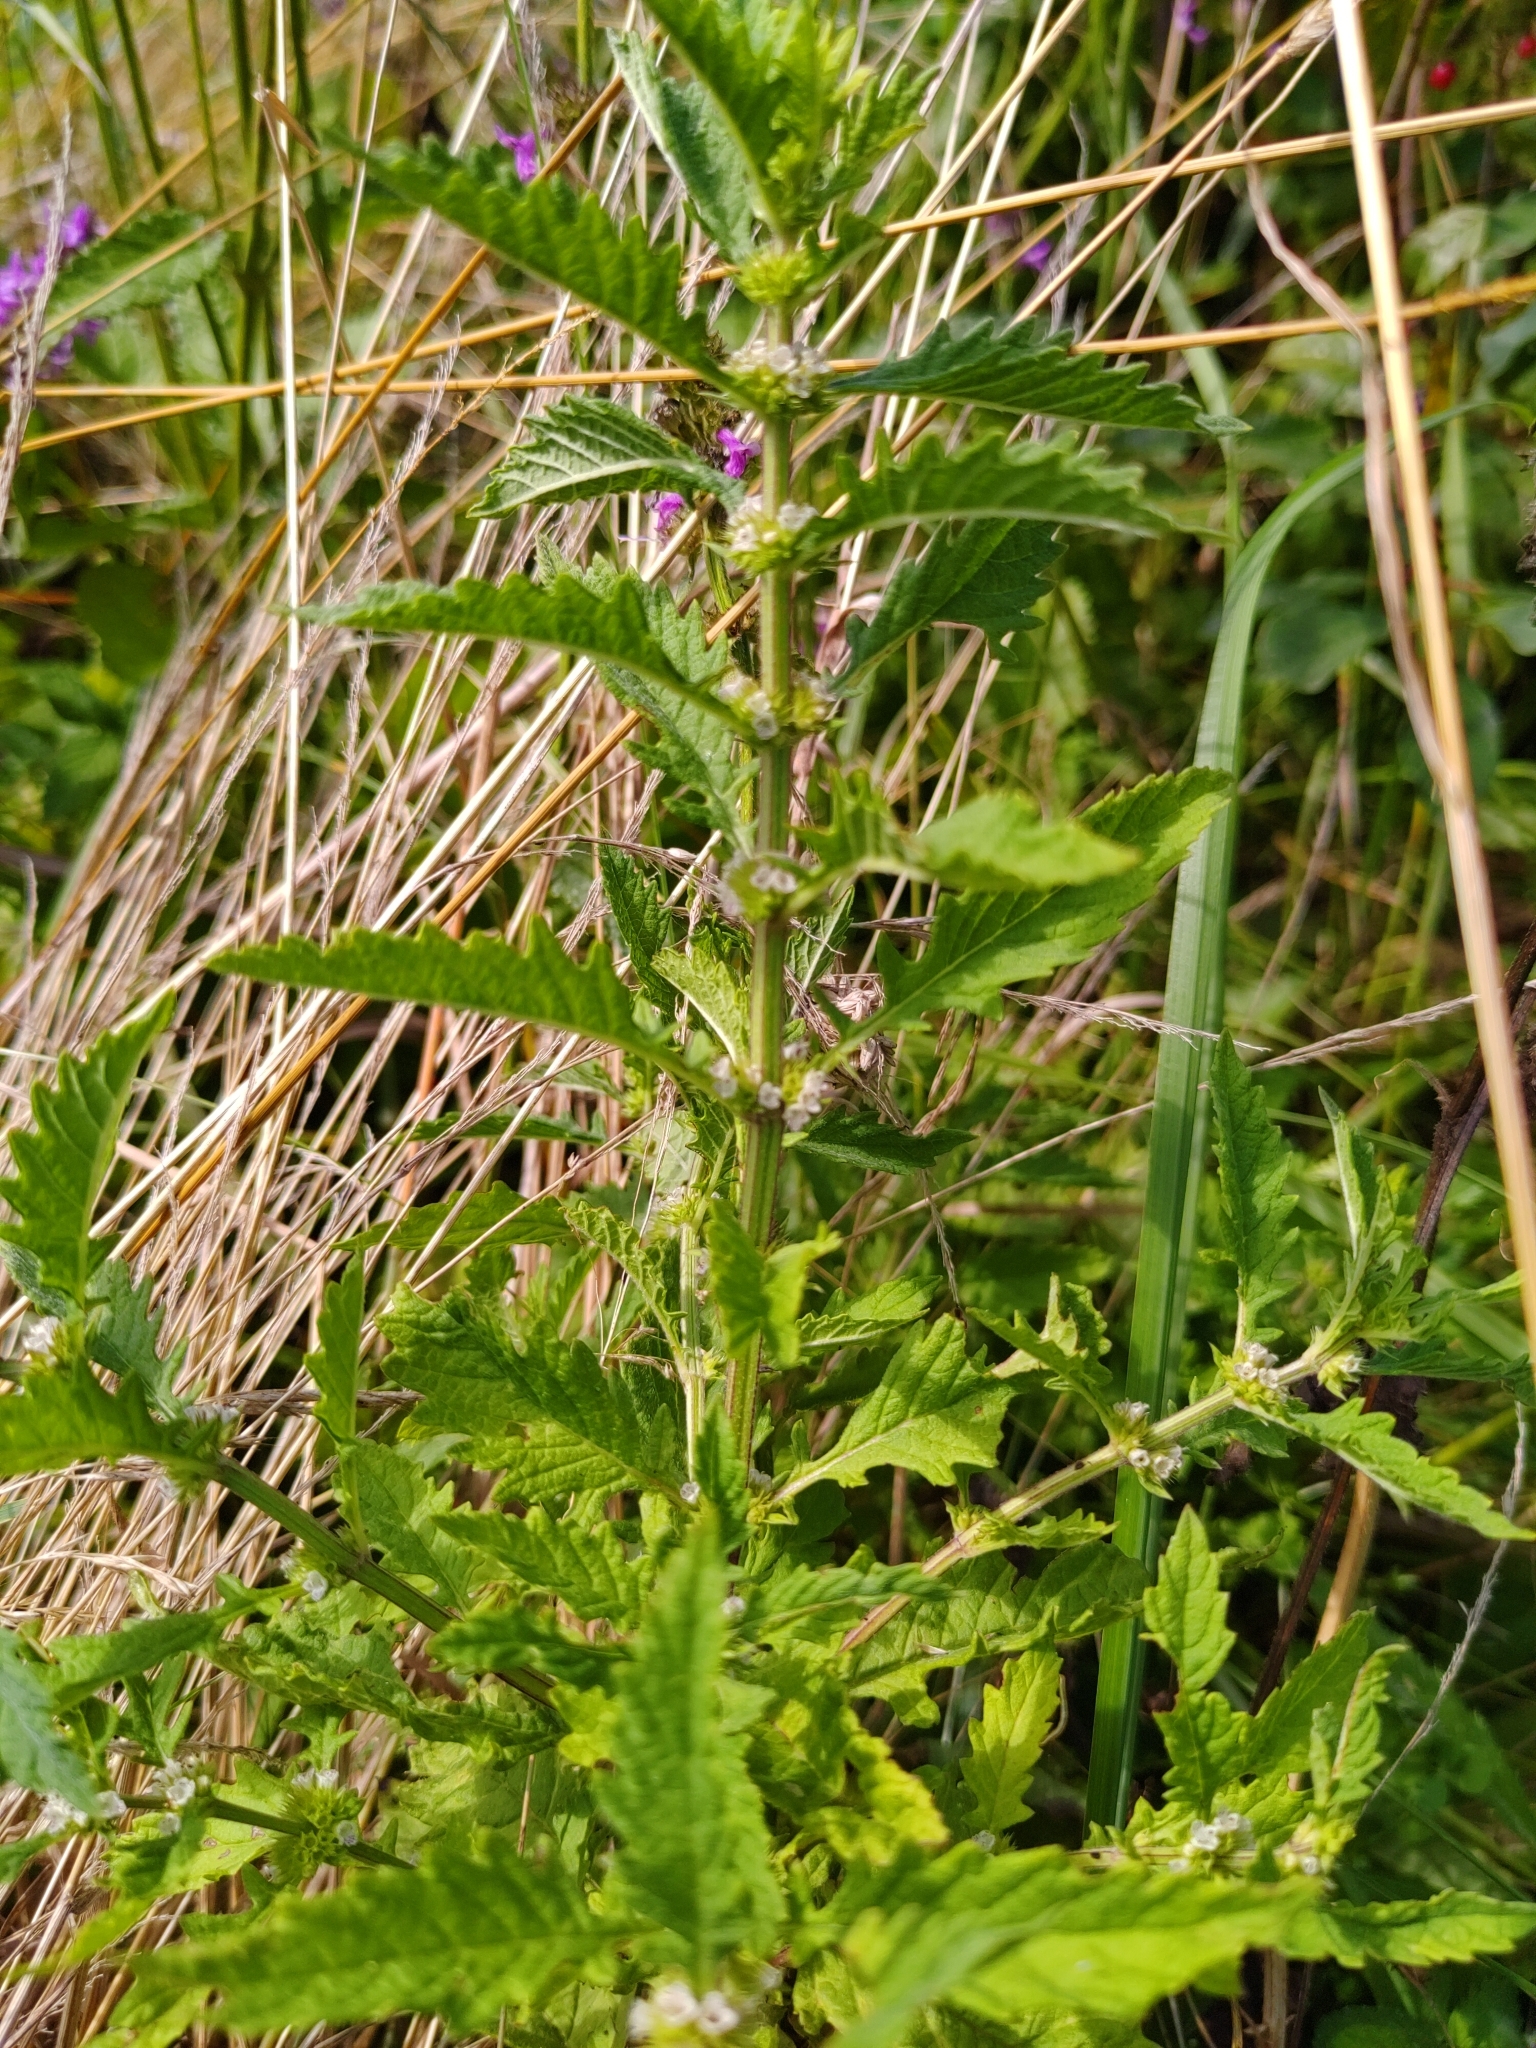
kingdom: Plantae
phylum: Tracheophyta
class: Magnoliopsida
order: Lamiales
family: Lamiaceae
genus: Lycopus
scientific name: Lycopus europaeus
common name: European bugleweed
